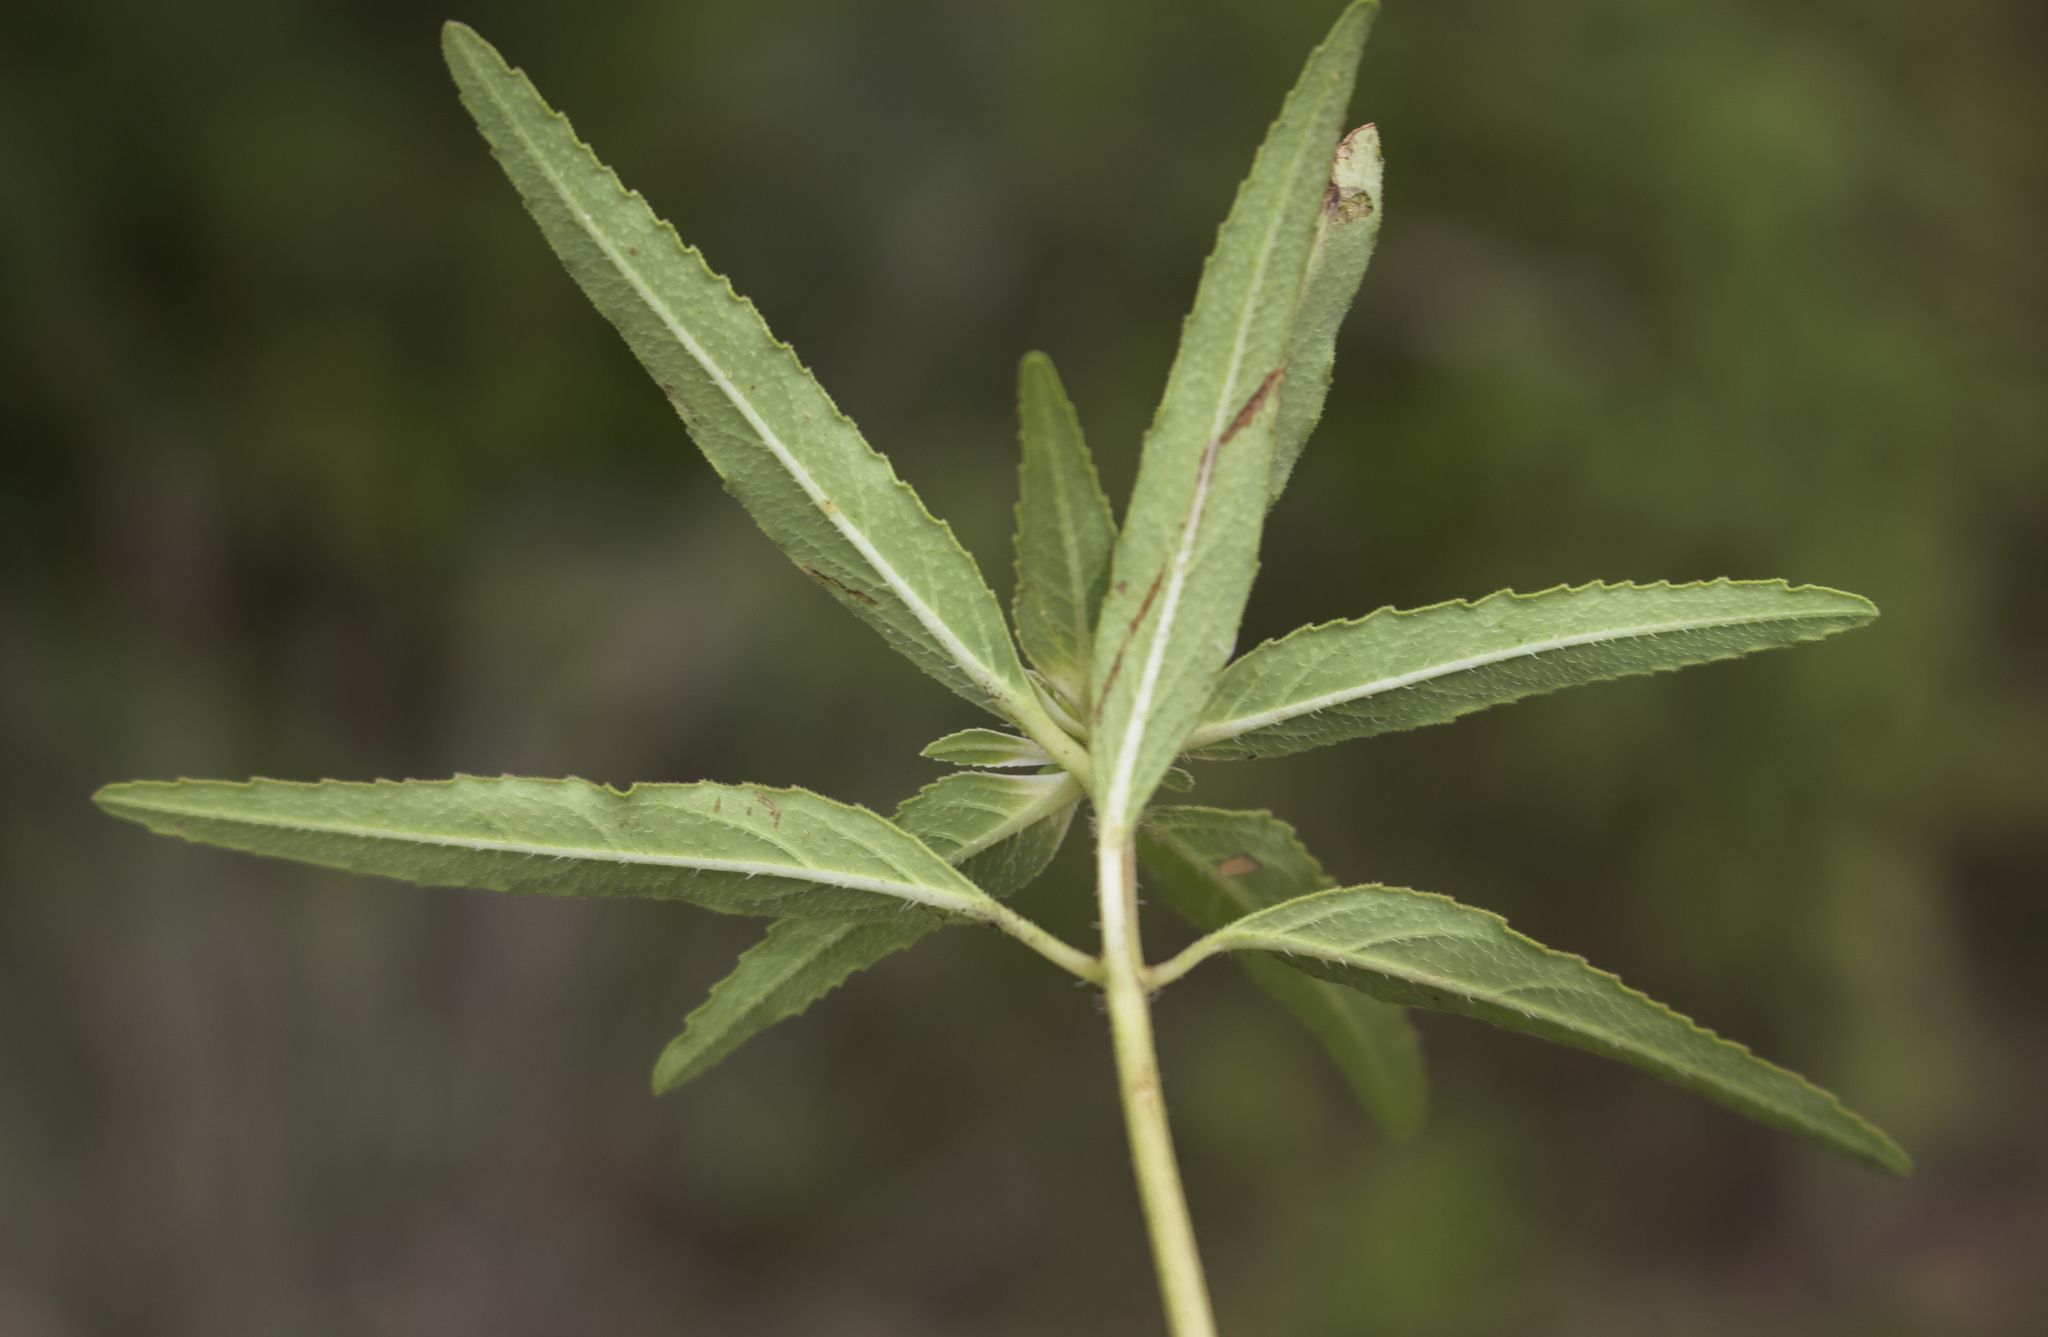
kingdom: Plantae
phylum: Tracheophyta
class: Magnoliopsida
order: Malpighiales
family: Euphorbiaceae
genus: Euphorbia
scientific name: Euphorbia davidii
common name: David's spurge
